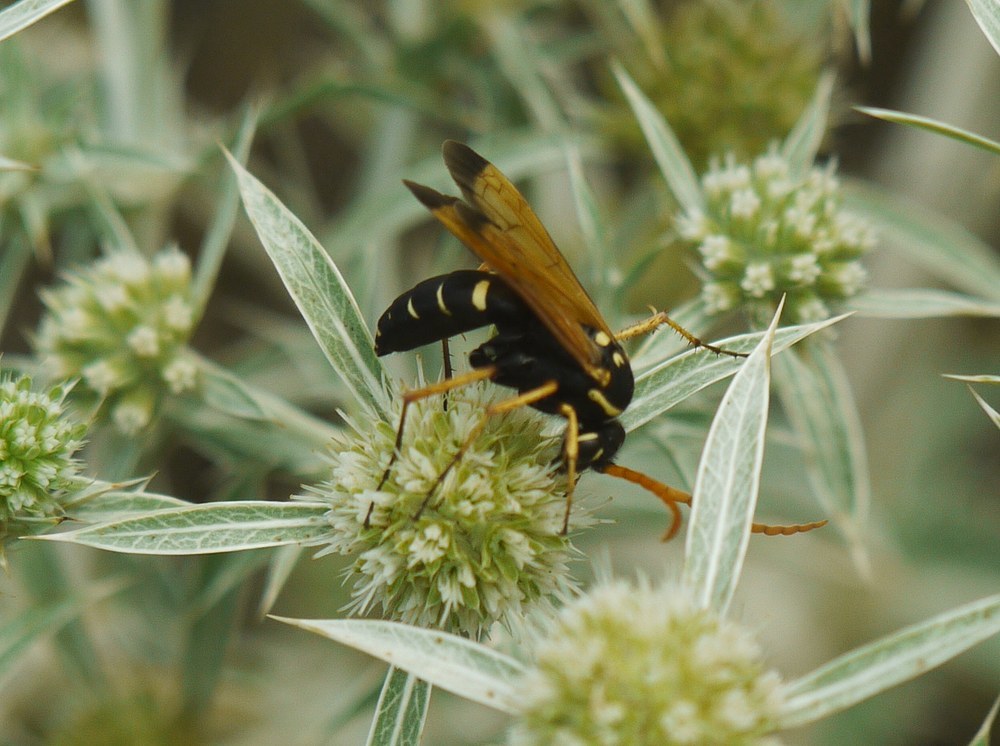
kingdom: Animalia
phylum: Arthropoda
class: Insecta
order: Hymenoptera
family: Pompilidae
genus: Parabatozonus
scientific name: Parabatozonus lacerticida
